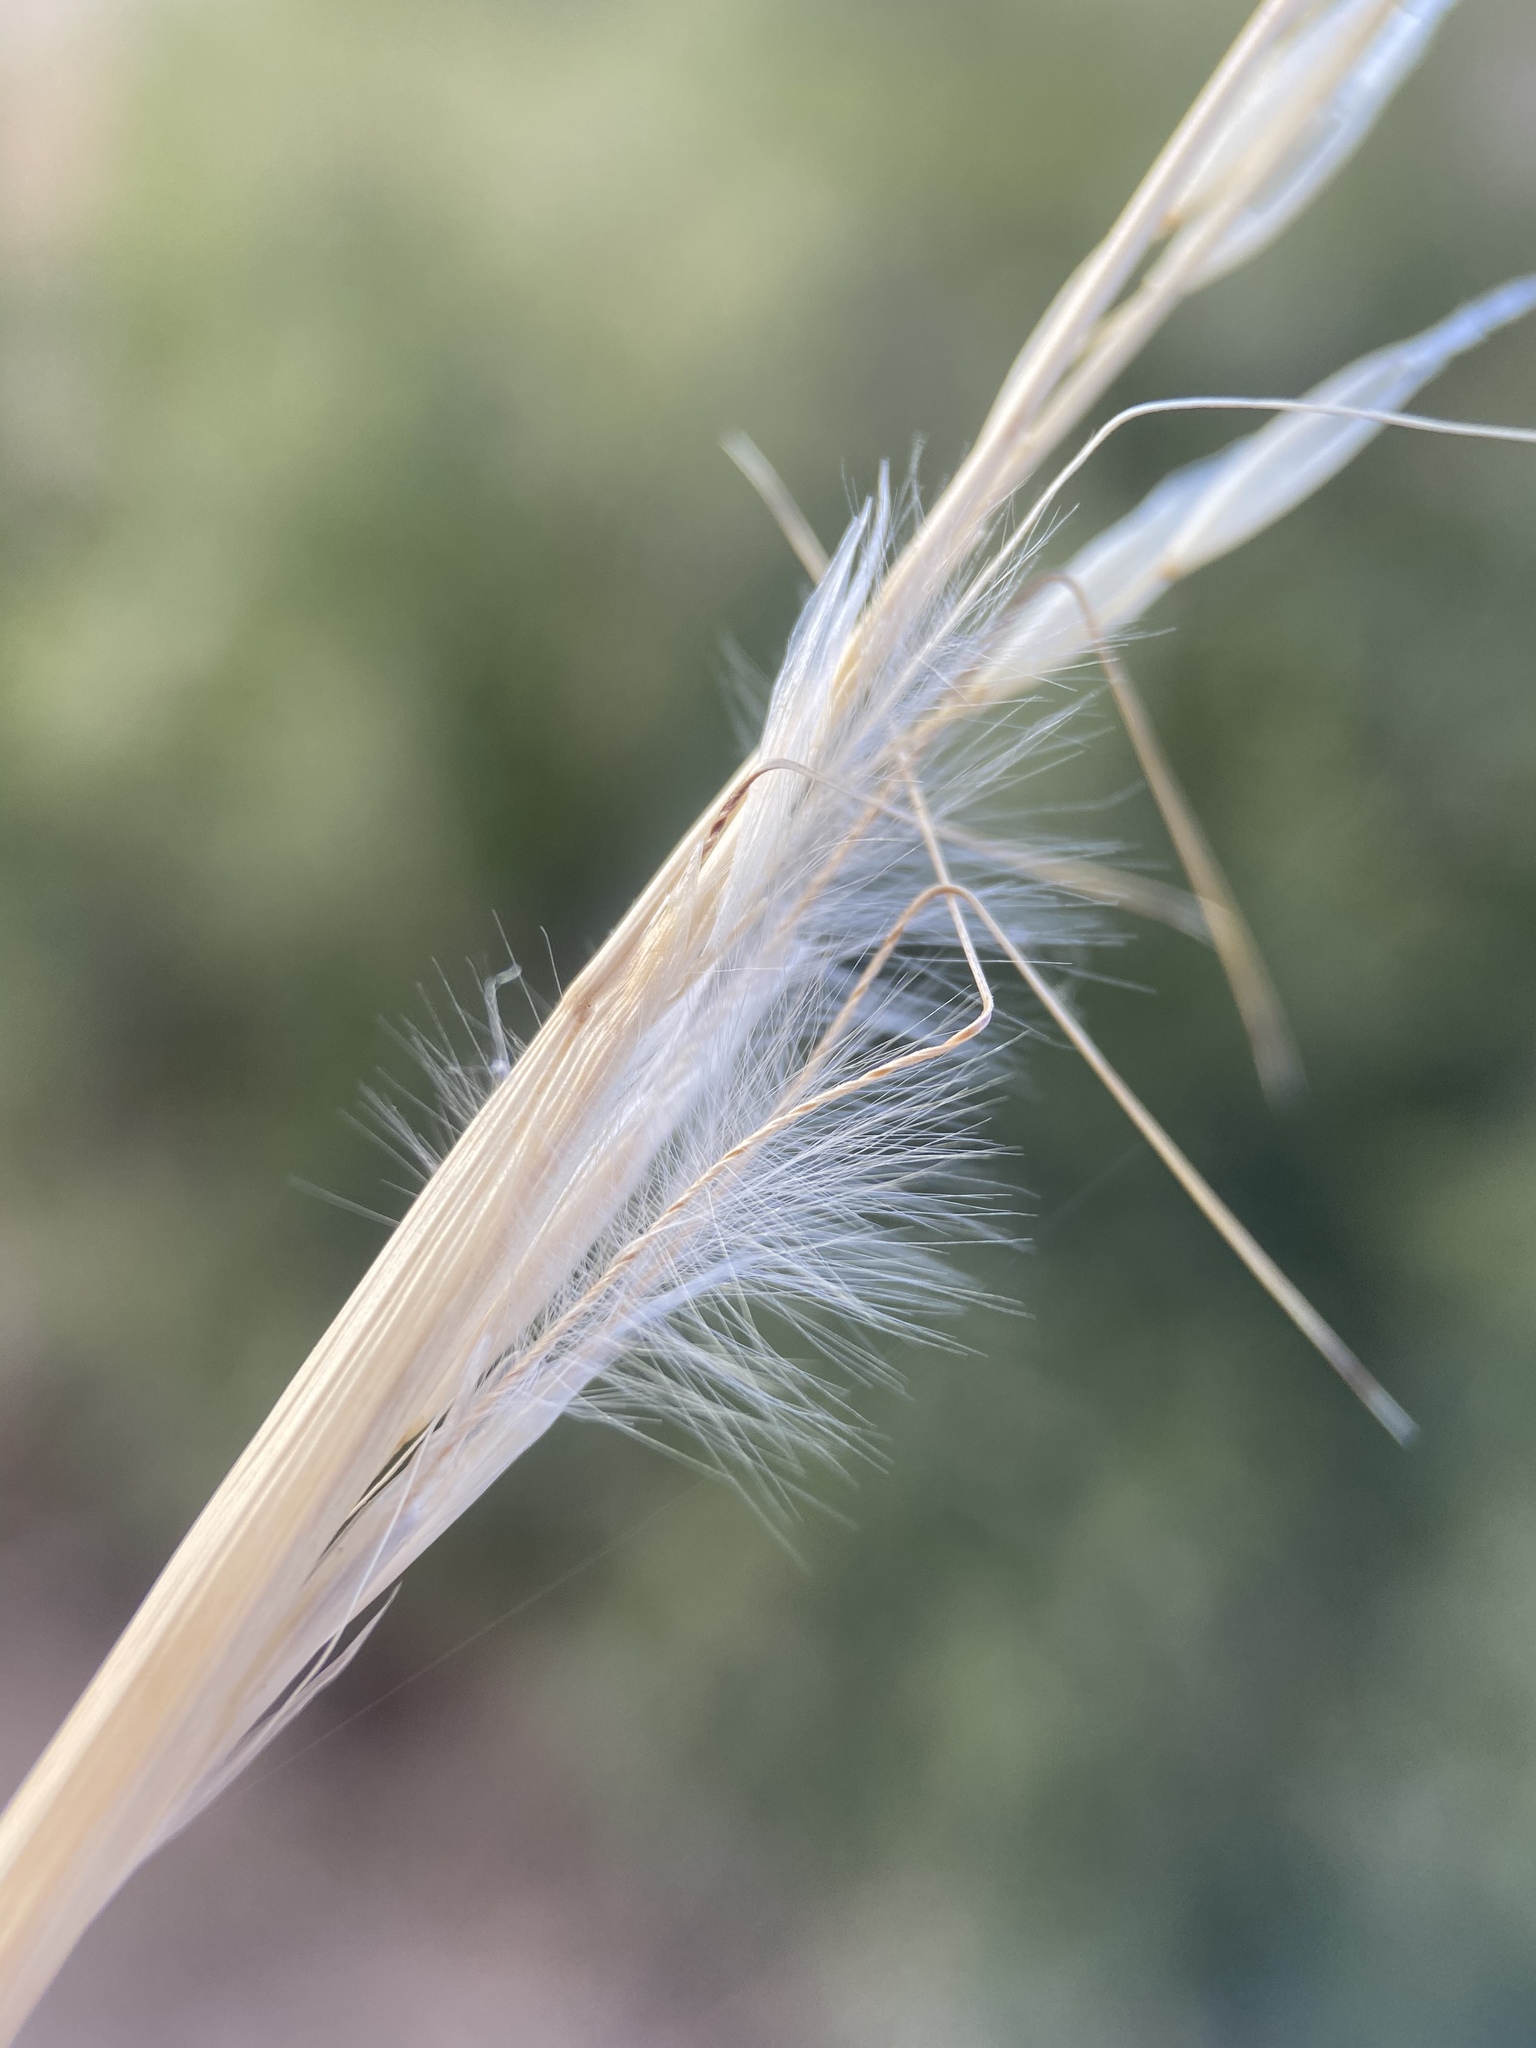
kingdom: Plantae
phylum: Tracheophyta
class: Liliopsida
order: Poales
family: Poaceae
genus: Pappostipa
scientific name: Pappostipa speciosa
